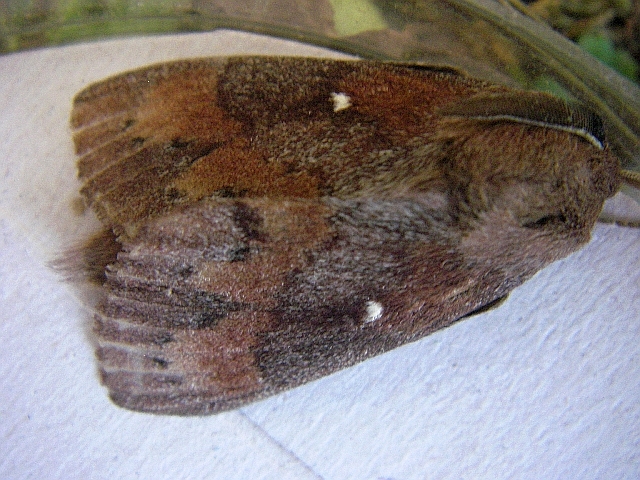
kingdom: Animalia
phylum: Arthropoda
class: Insecta
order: Lepidoptera
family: Lasiocampidae
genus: Dendrolimus
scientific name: Dendrolimus pini
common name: Pine-tree lappet
